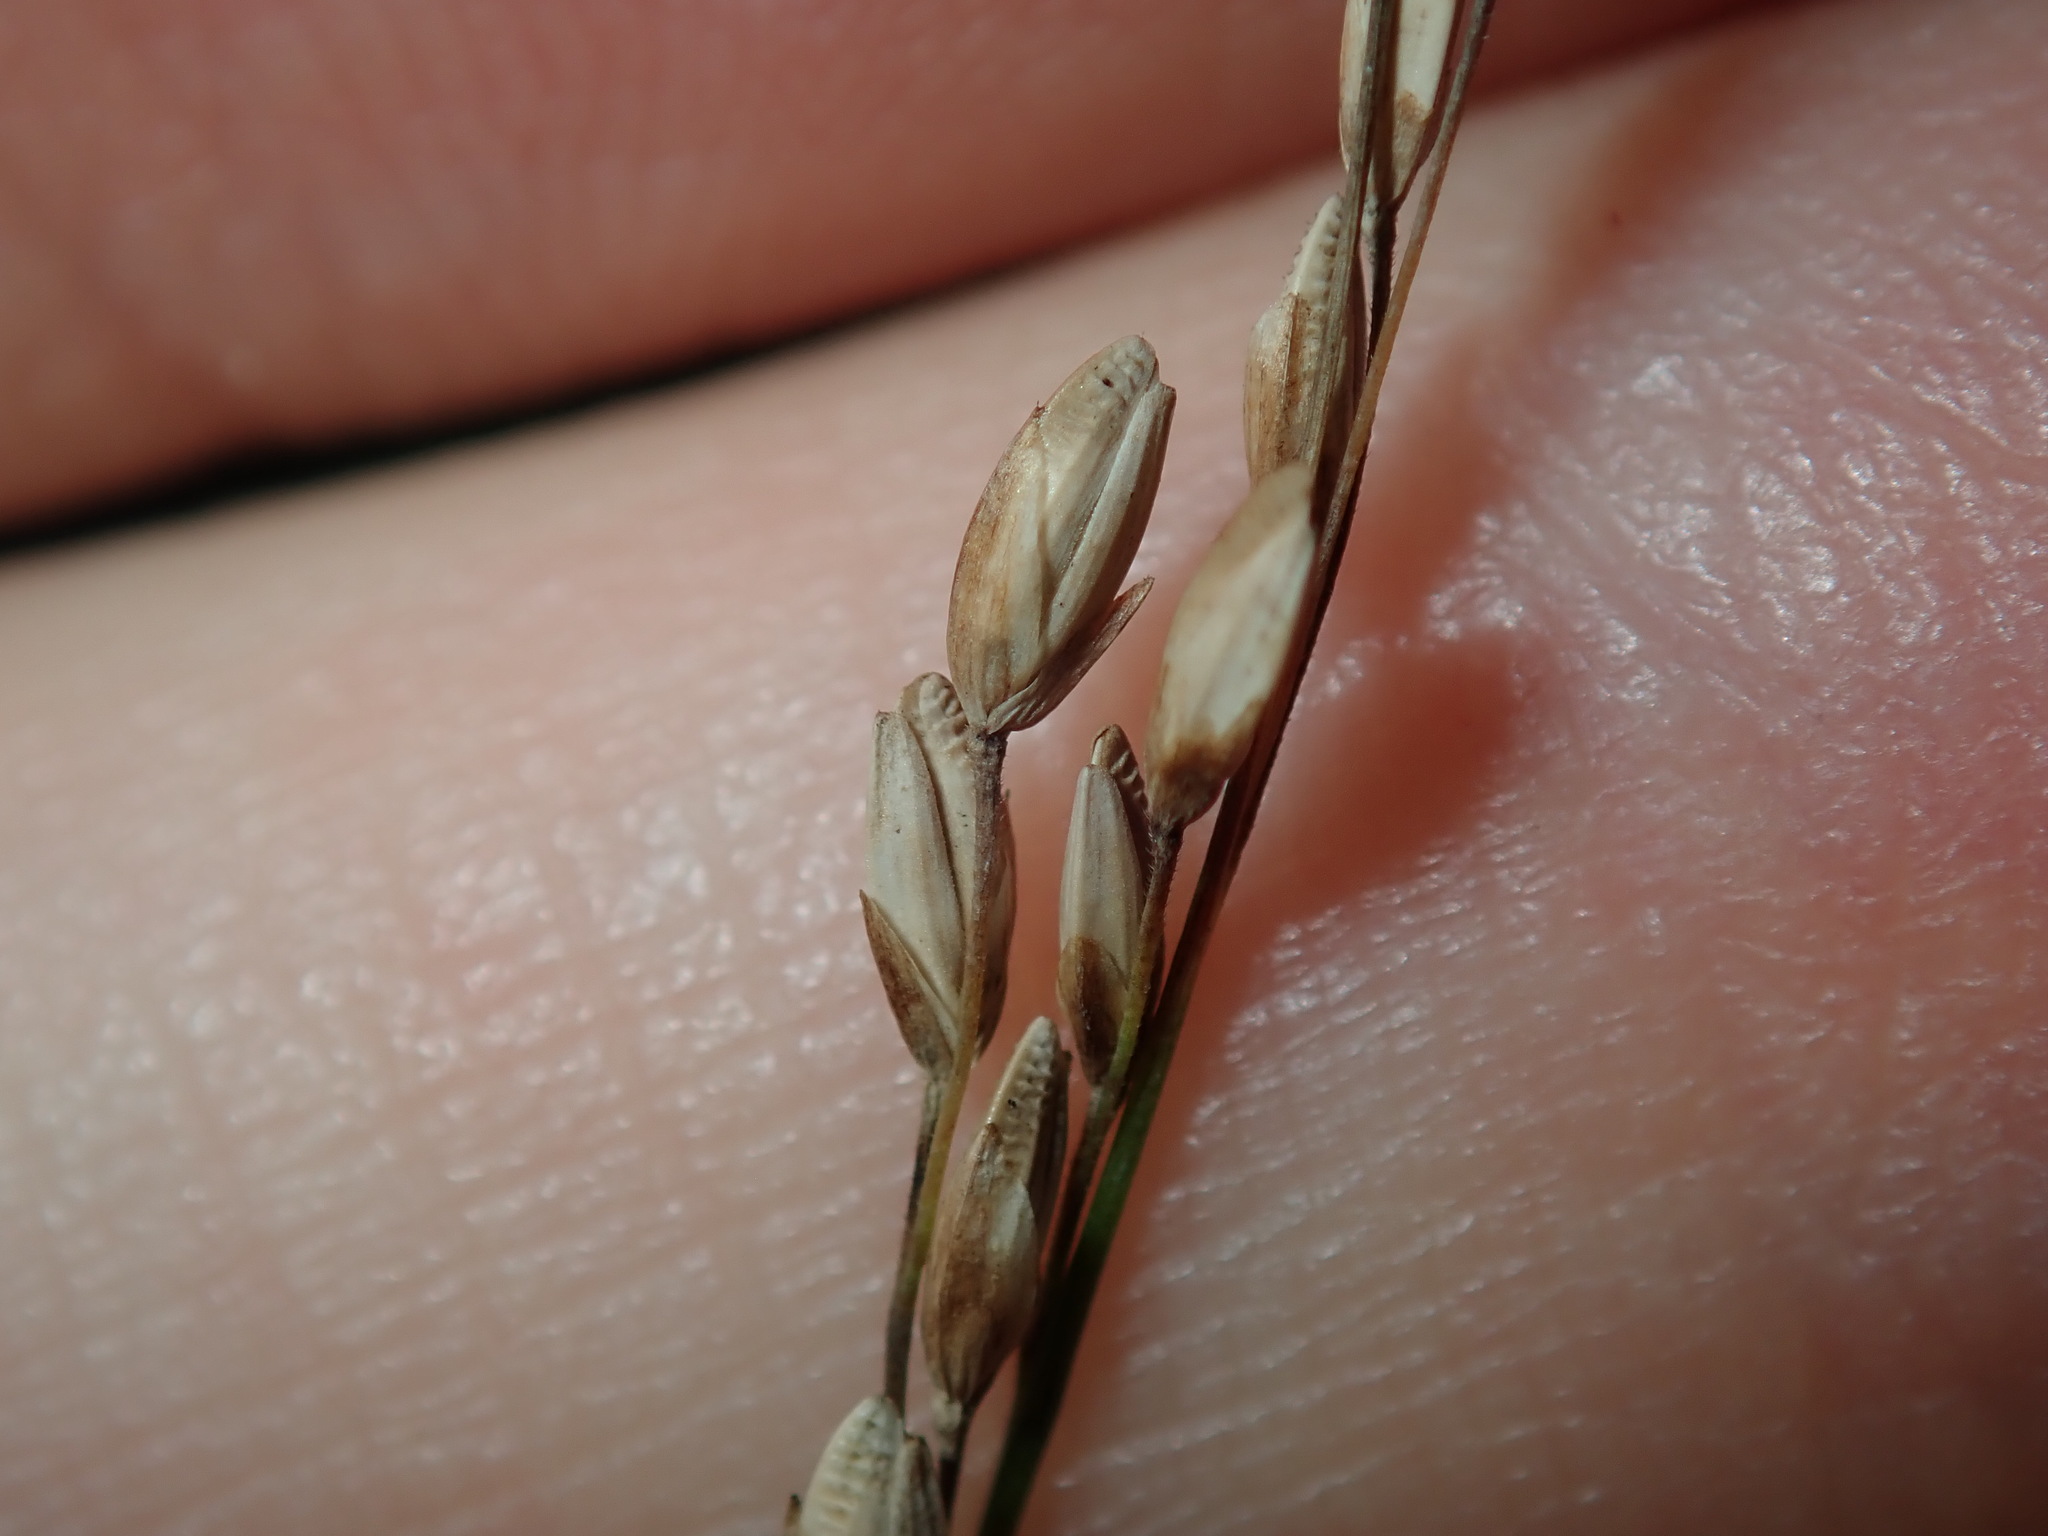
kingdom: Plantae
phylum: Tracheophyta
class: Liliopsida
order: Poales
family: Poaceae
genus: Ehrharta
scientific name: Ehrharta erecta
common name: Panic veldtgrass
